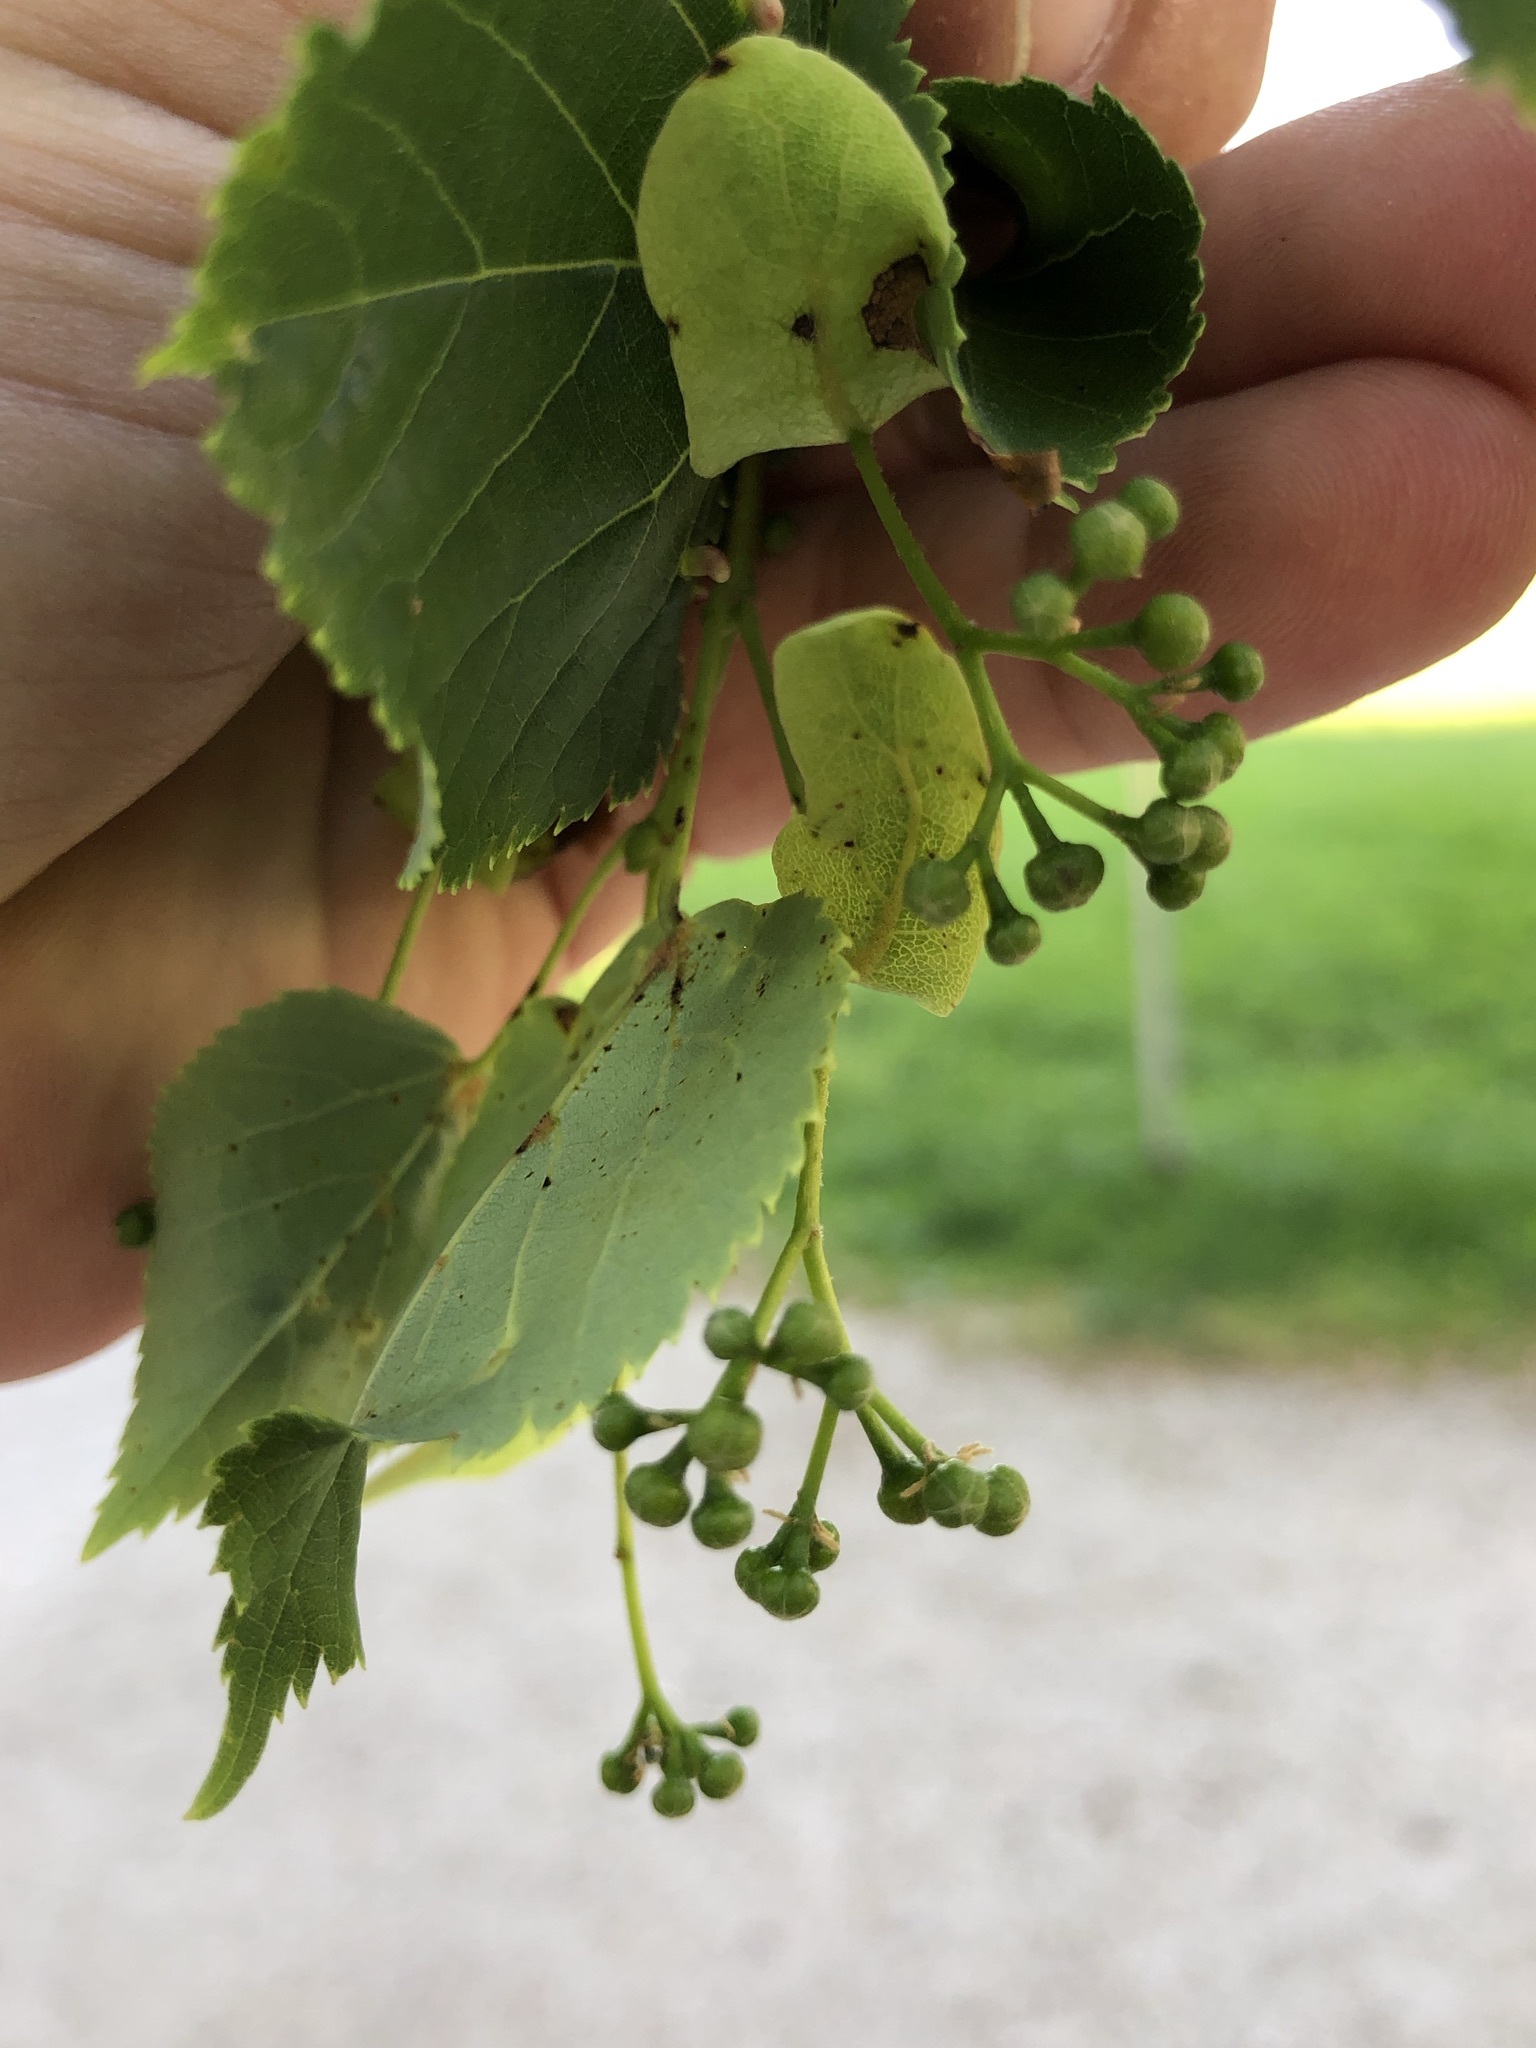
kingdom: Plantae
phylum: Tracheophyta
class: Magnoliopsida
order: Malvales
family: Malvaceae
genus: Tilia
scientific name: Tilia cordata
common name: Small-leaved lime
